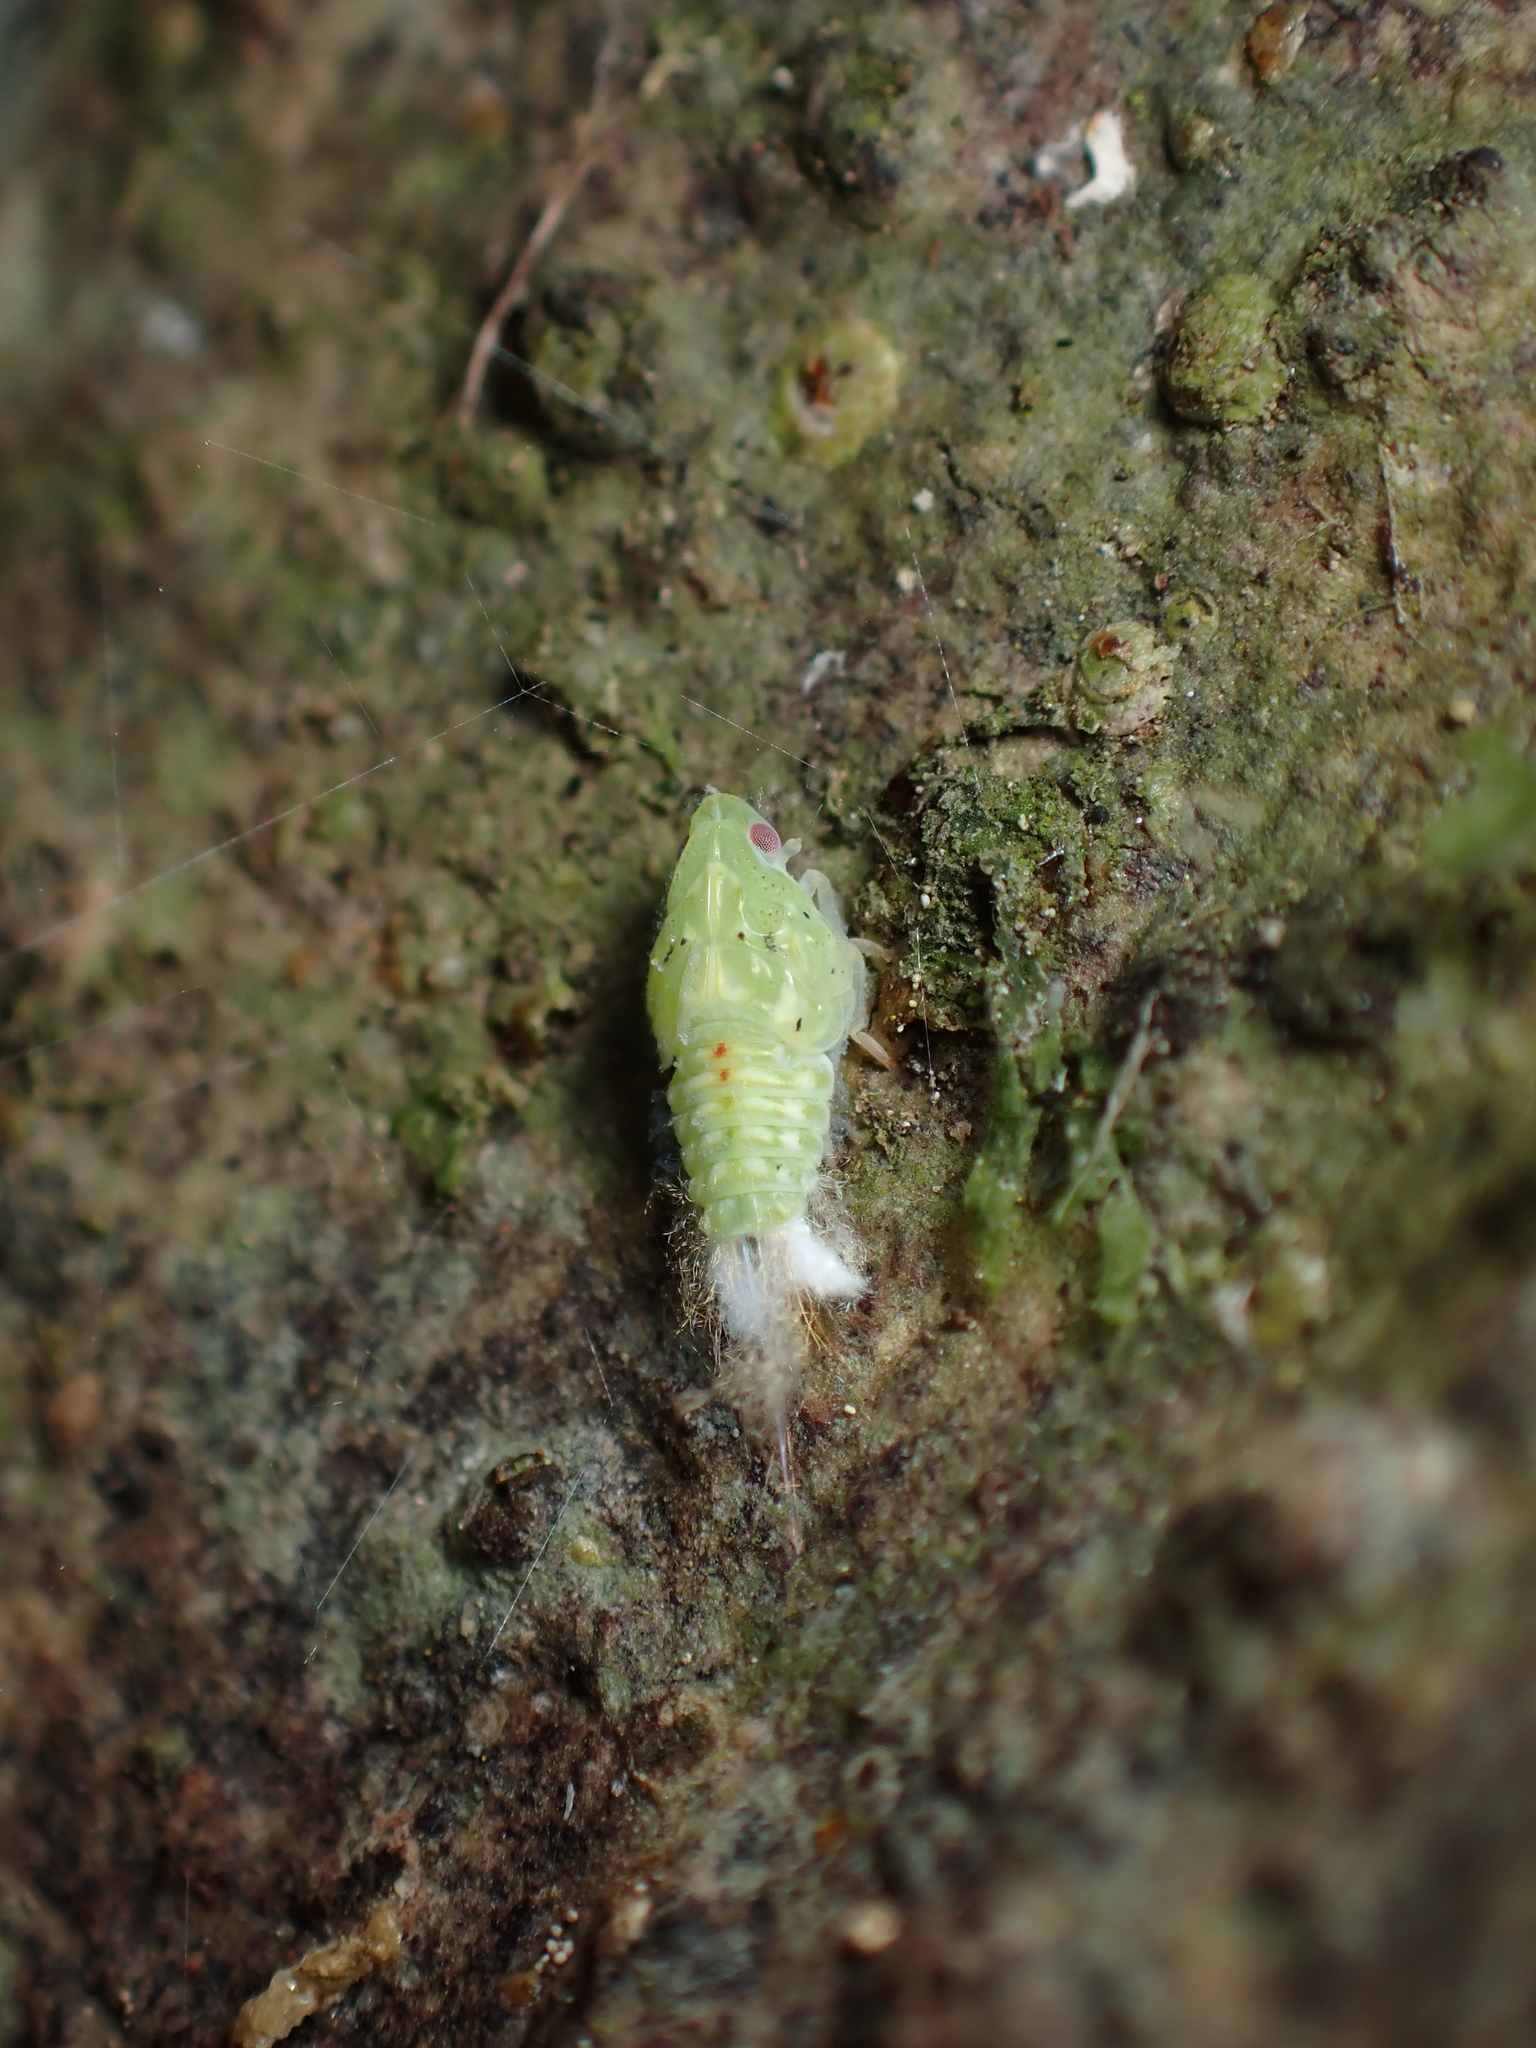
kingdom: Animalia
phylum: Arthropoda
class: Insecta
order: Hemiptera
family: Flatidae
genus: Siphanta
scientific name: Siphanta acuta
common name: Torpedo bug
